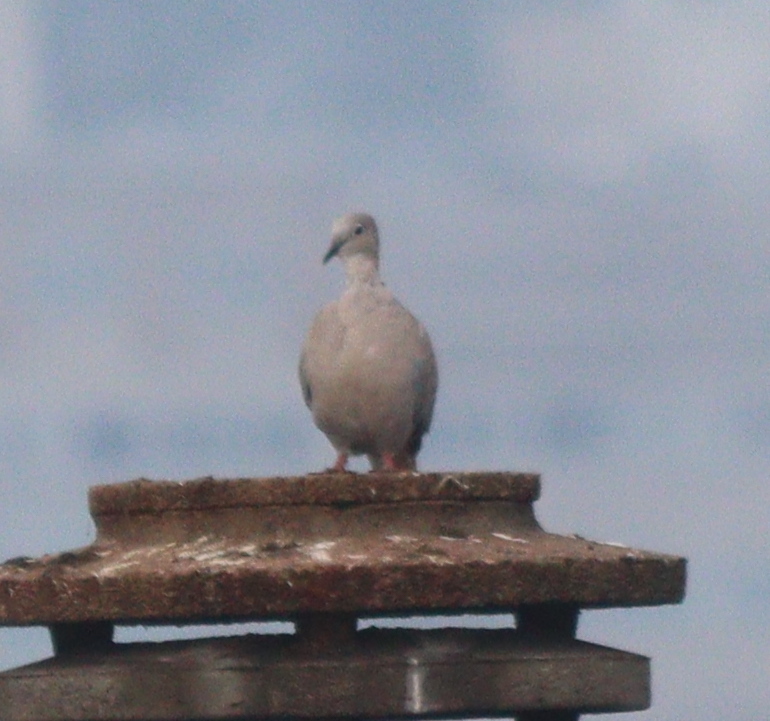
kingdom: Animalia
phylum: Chordata
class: Aves
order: Columbiformes
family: Columbidae
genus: Streptopelia
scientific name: Streptopelia decaocto
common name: Eurasian collared dove
